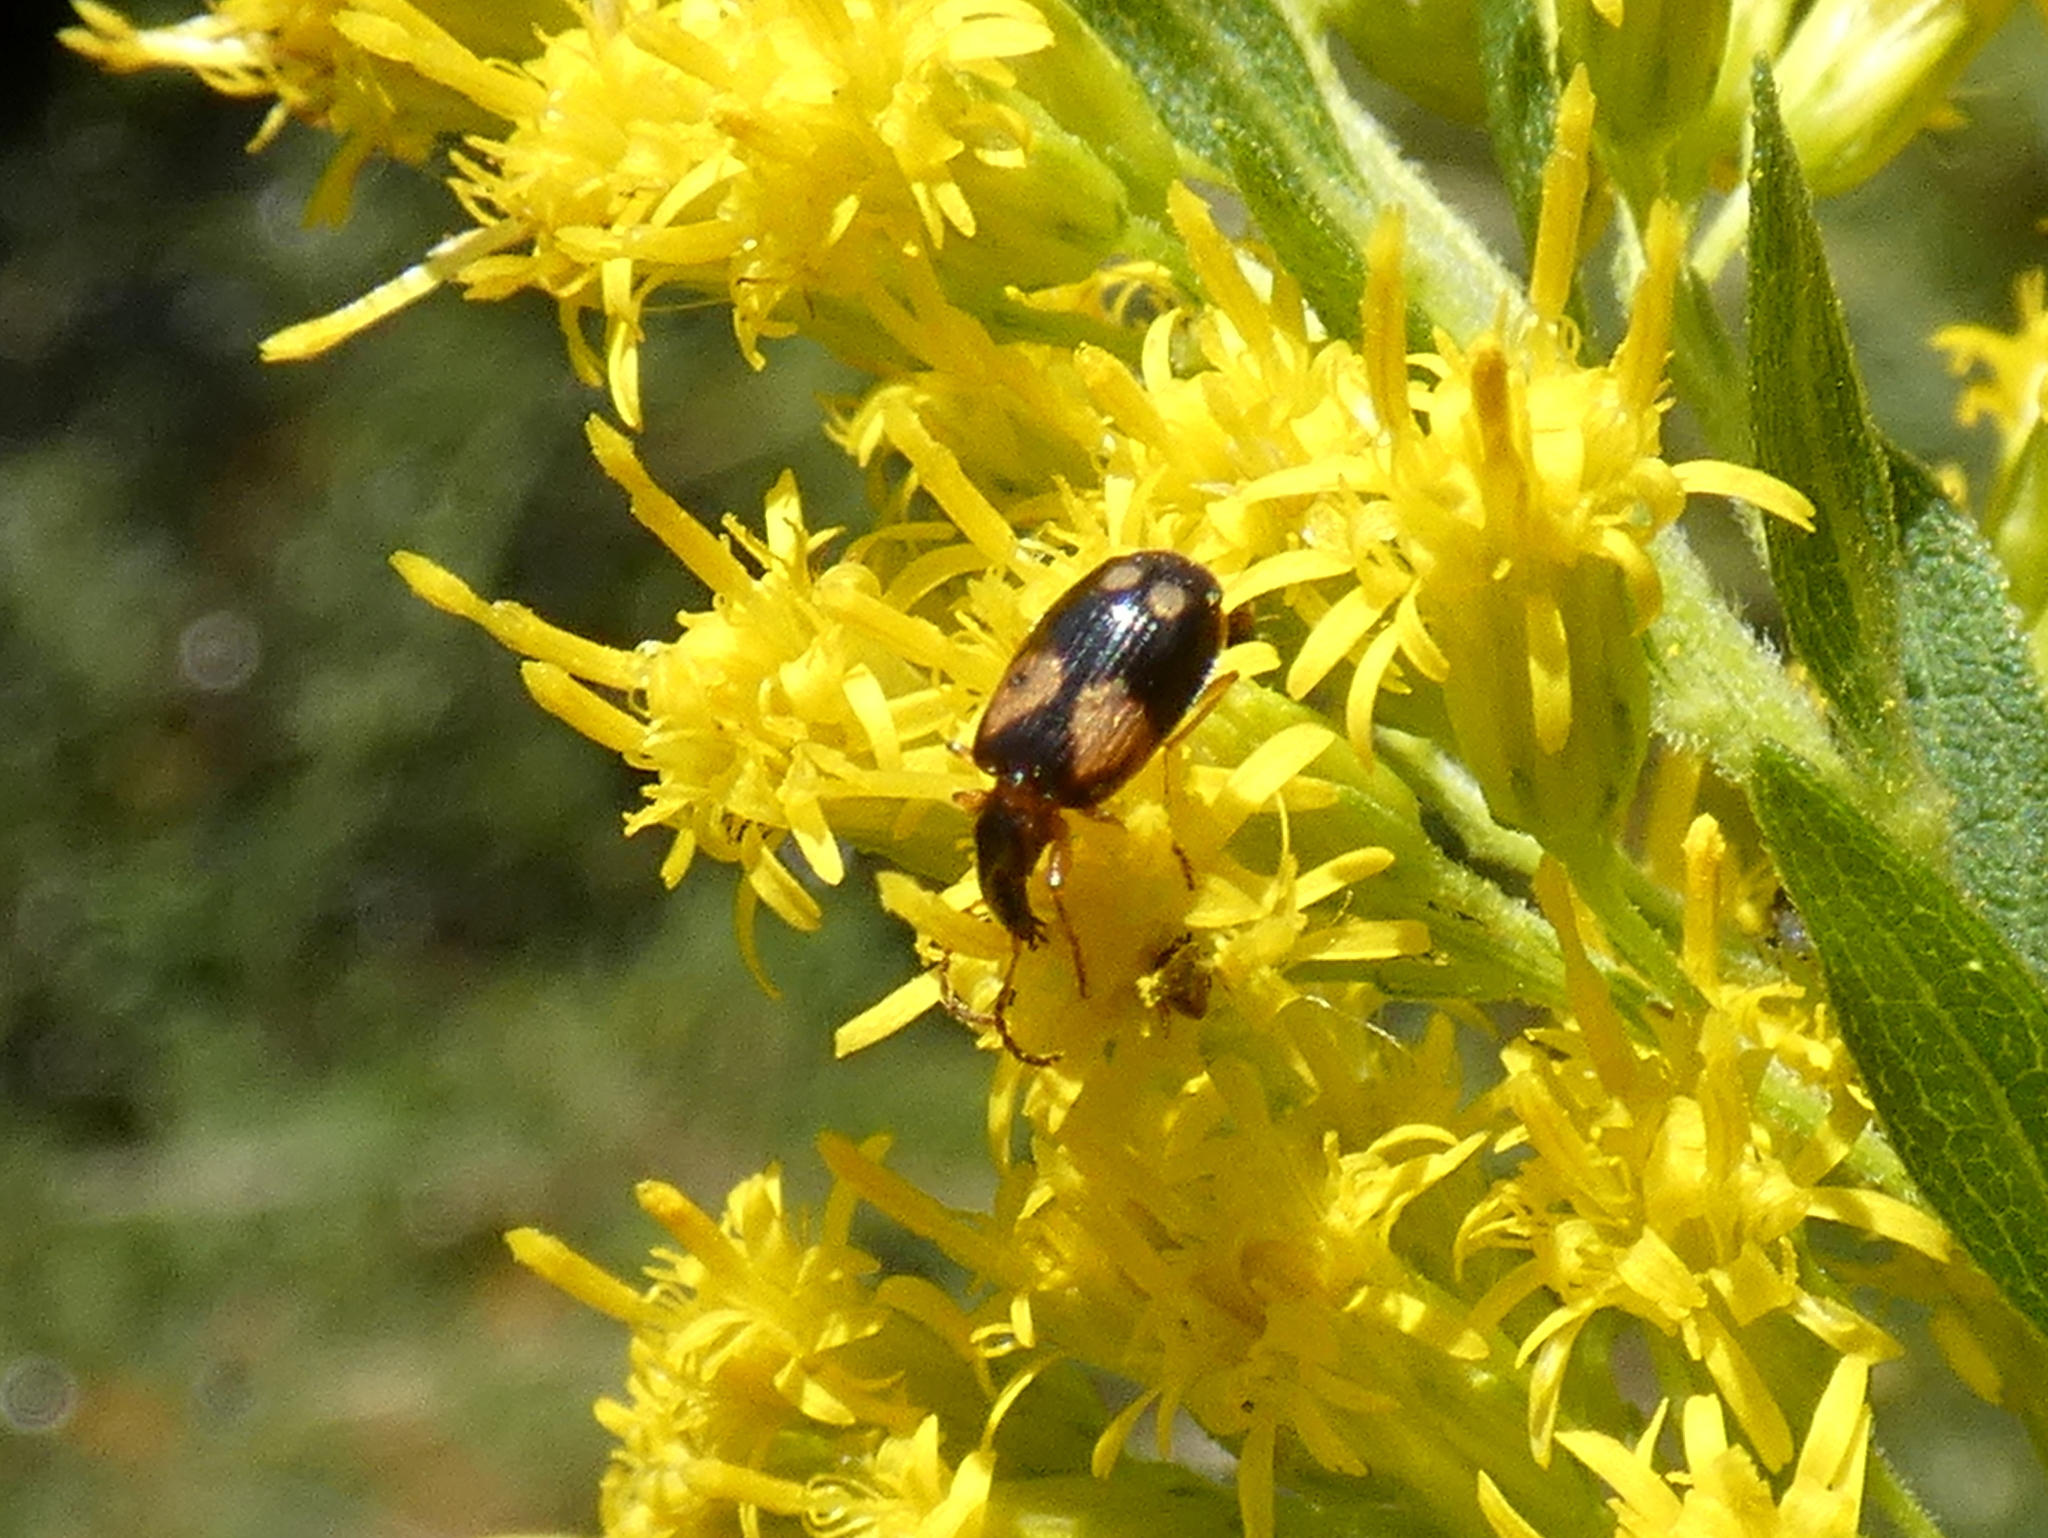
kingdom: Animalia
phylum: Arthropoda
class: Insecta
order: Coleoptera
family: Carabidae
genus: Lebia
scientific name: Lebia ornata
